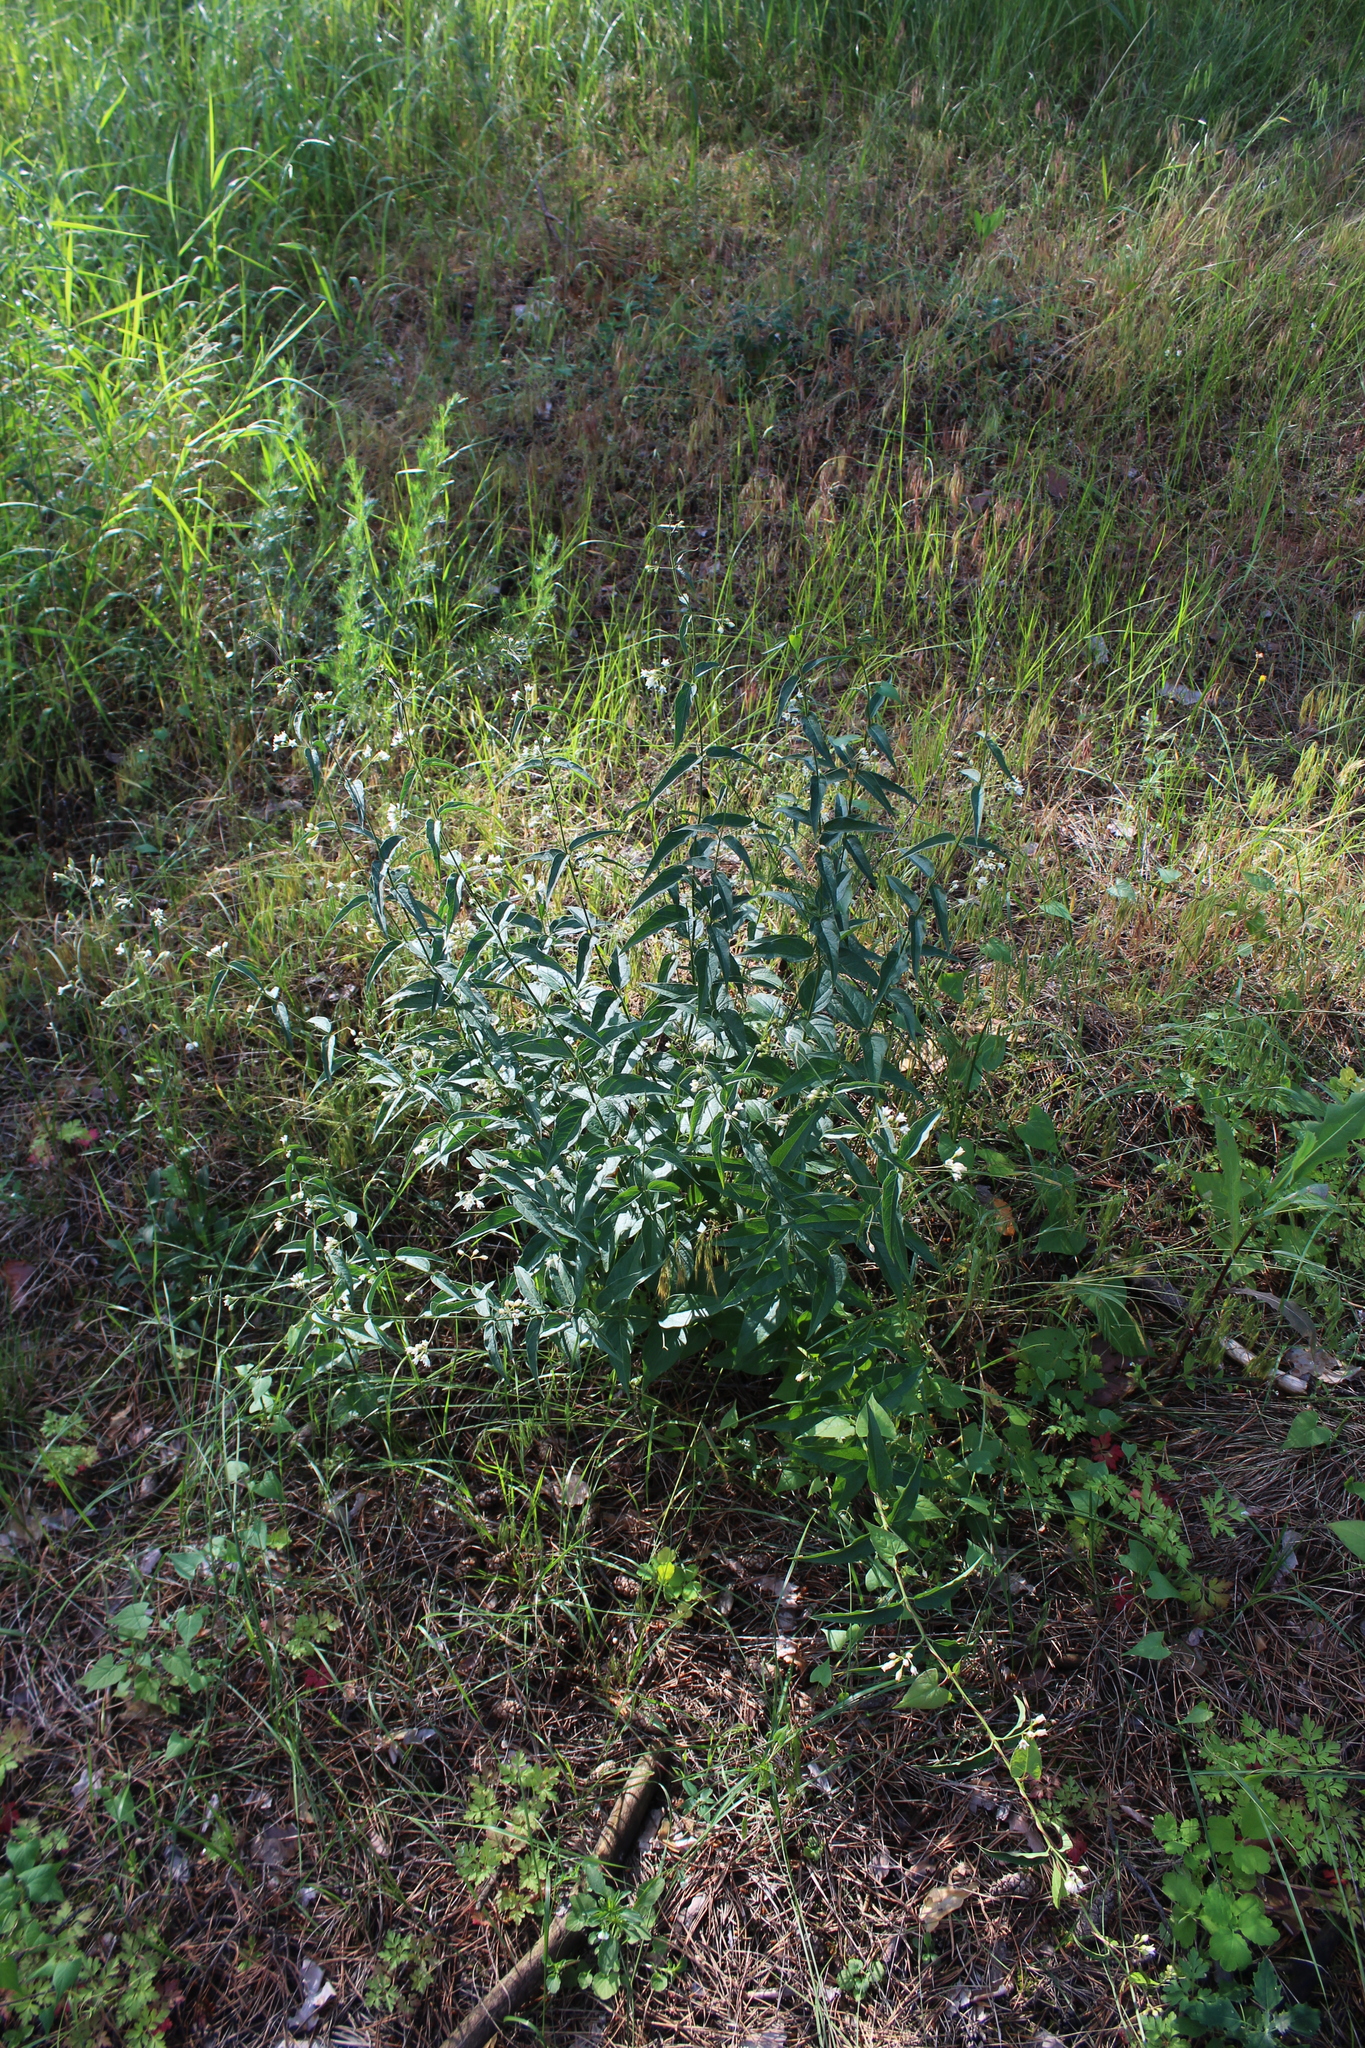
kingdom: Plantae
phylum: Tracheophyta
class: Magnoliopsida
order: Gentianales
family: Apocynaceae
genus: Vincetoxicum
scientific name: Vincetoxicum hirundinaria
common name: White swallowwort
